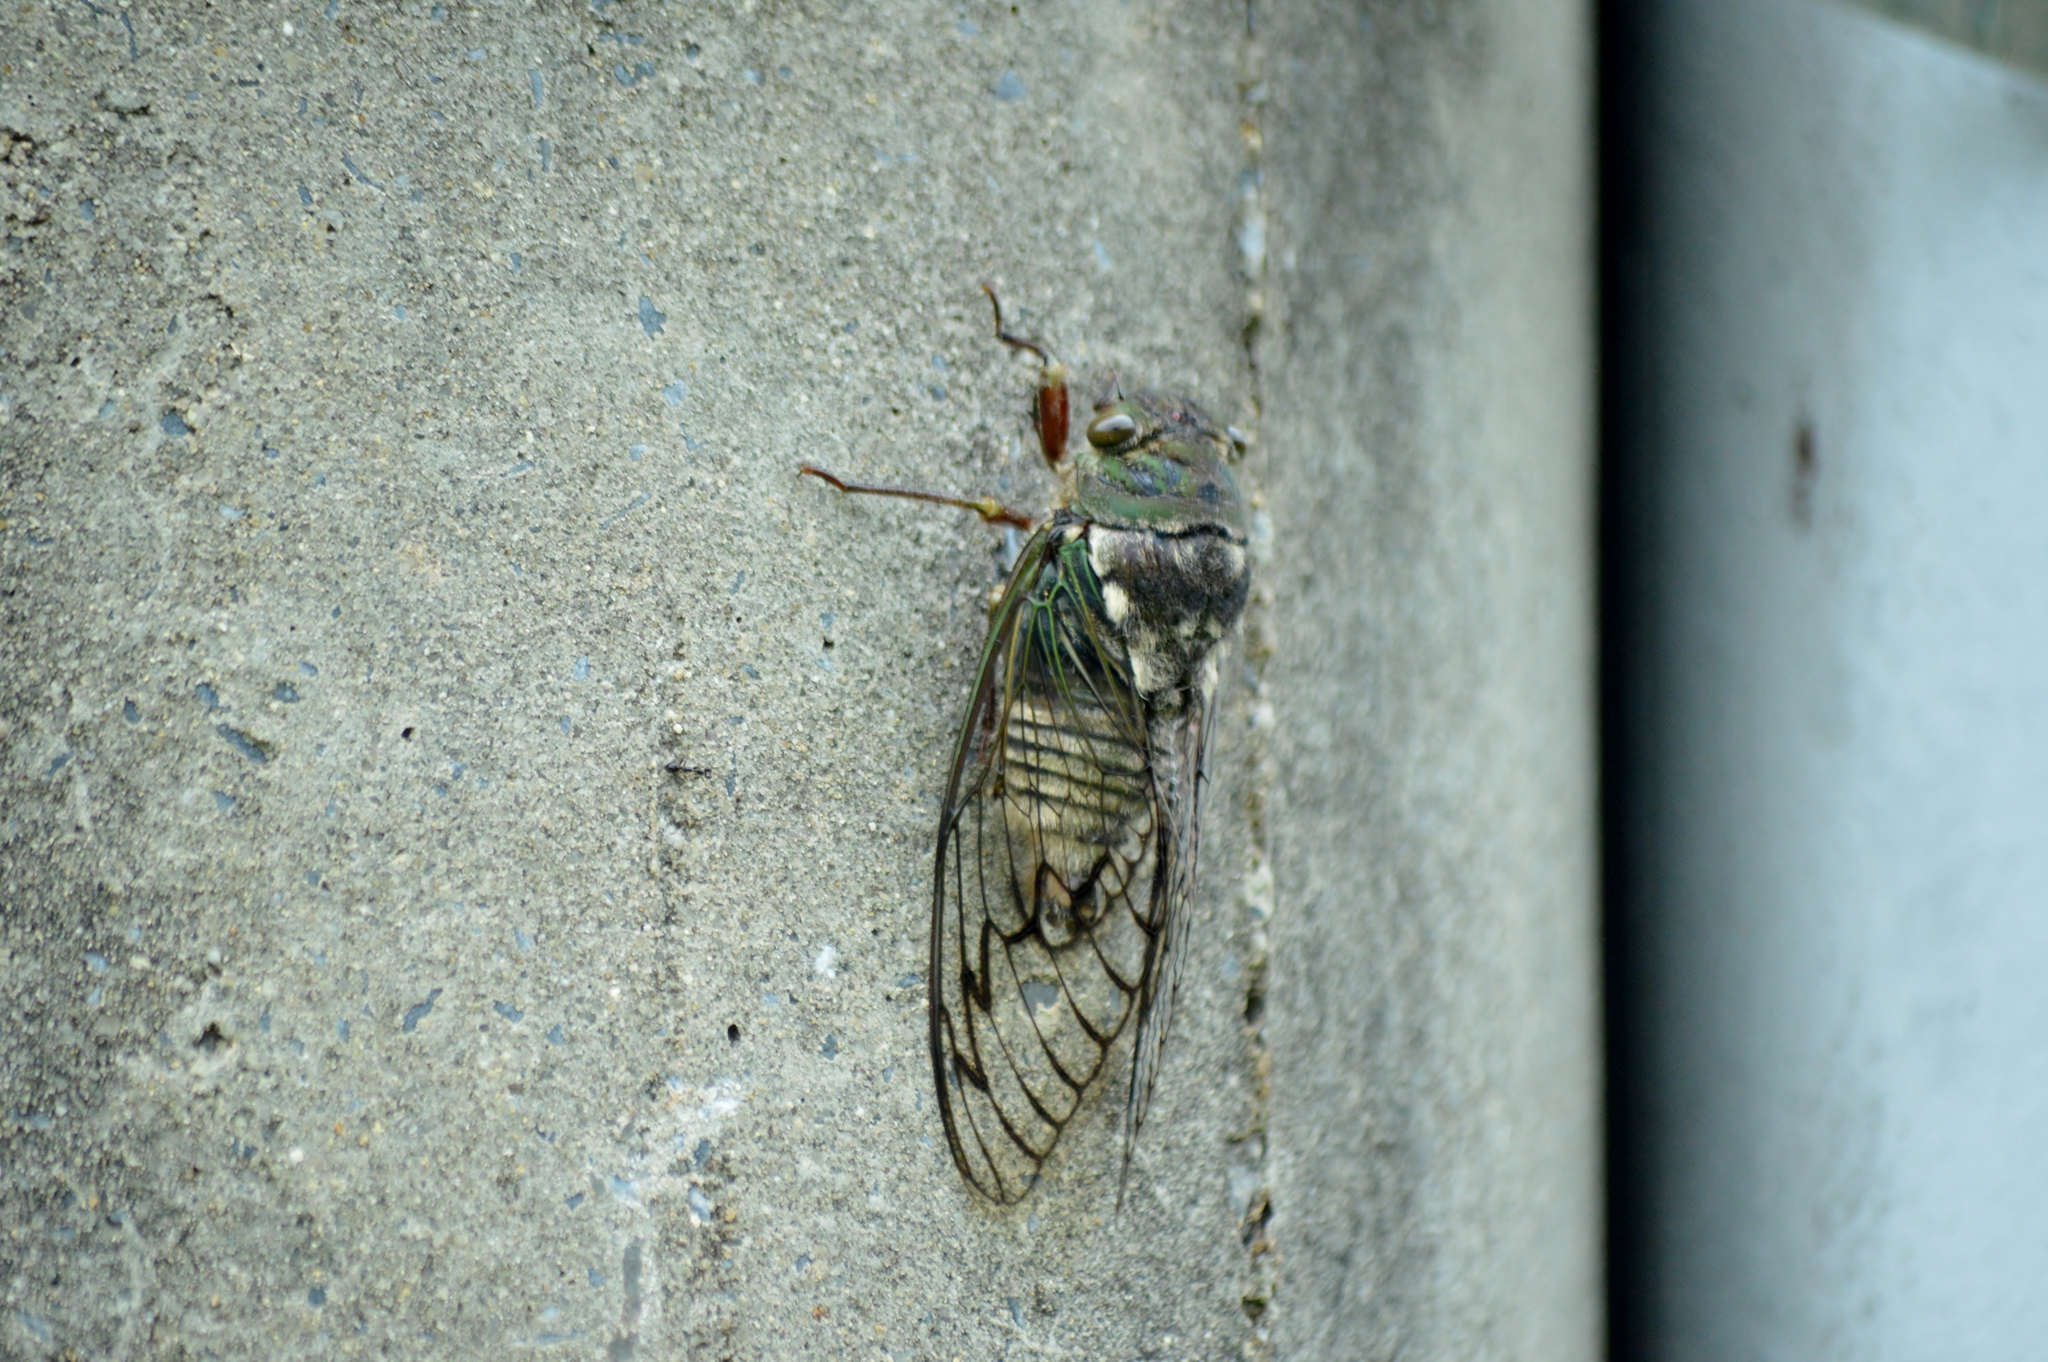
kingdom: Animalia
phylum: Arthropoda
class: Insecta
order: Hemiptera
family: Cicadidae
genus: Fidicina
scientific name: Fidicina toulgoeti
